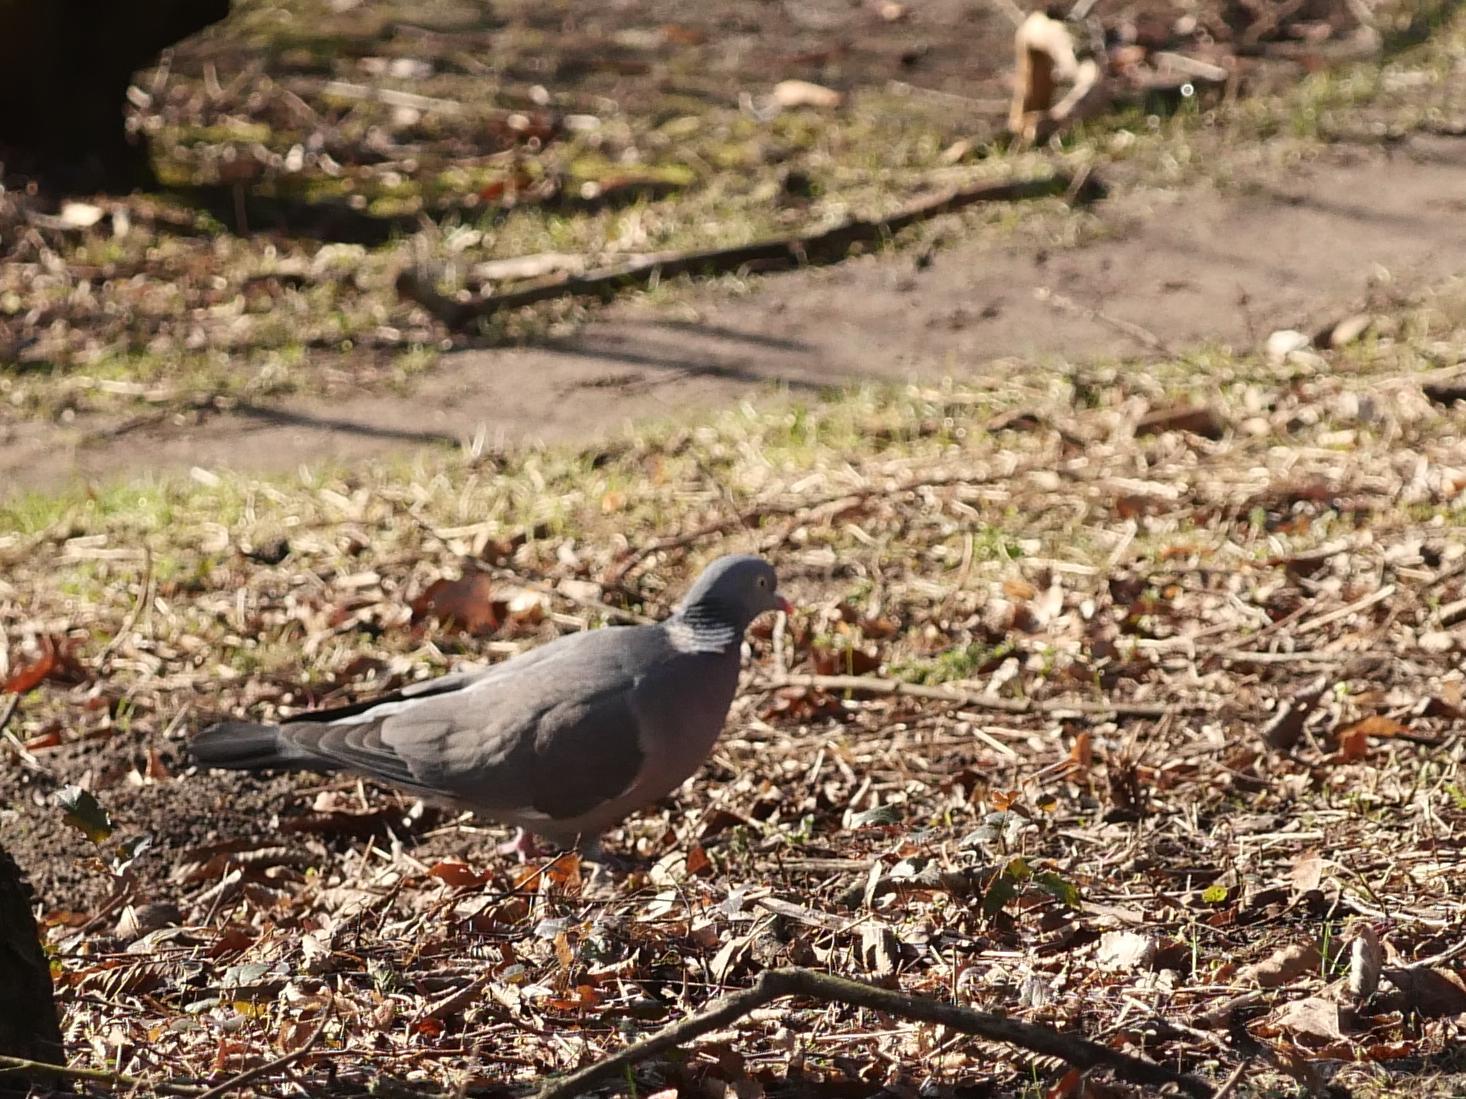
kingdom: Animalia
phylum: Chordata
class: Aves
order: Columbiformes
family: Columbidae
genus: Columba
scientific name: Columba palumbus
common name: Common wood pigeon
